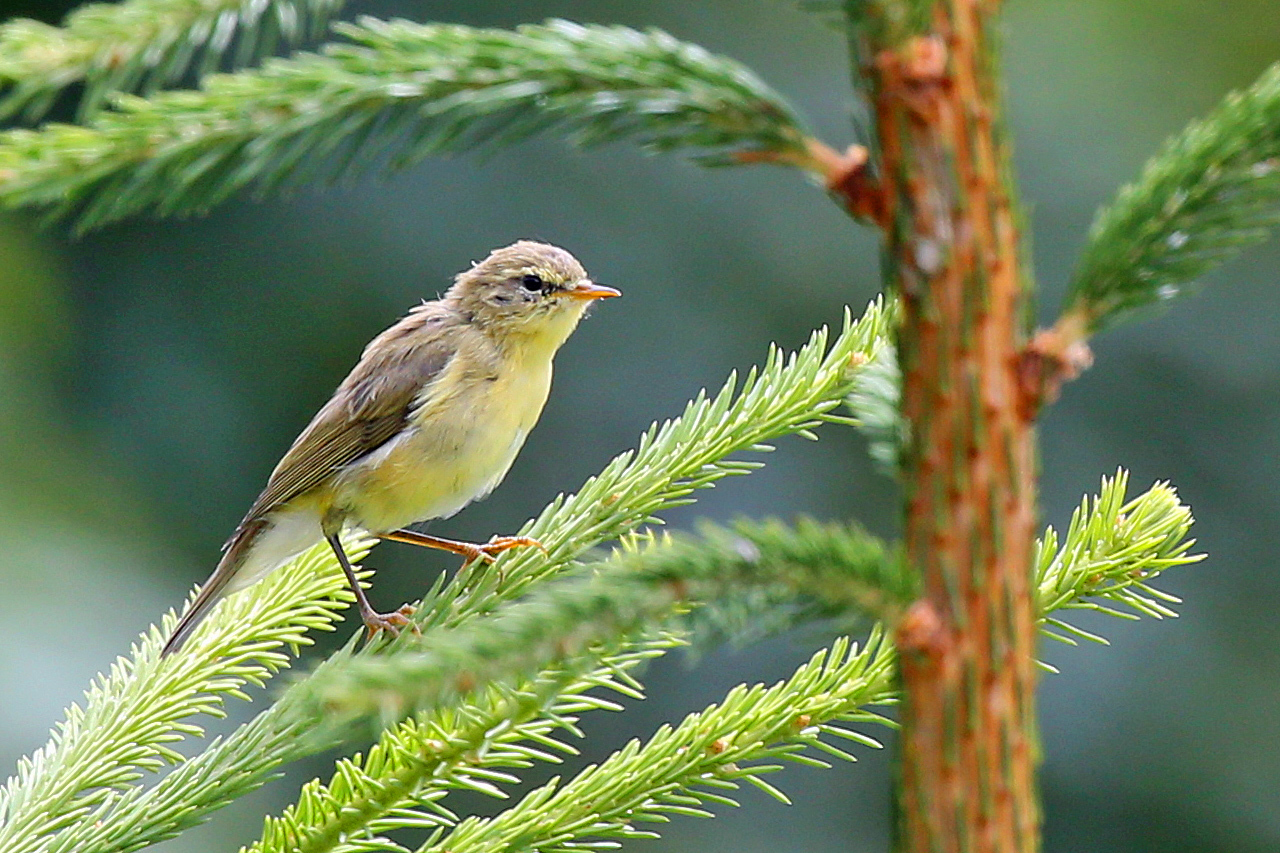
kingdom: Animalia
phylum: Chordata
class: Aves
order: Passeriformes
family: Phylloscopidae
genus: Phylloscopus
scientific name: Phylloscopus trochilus
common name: Willow warbler
